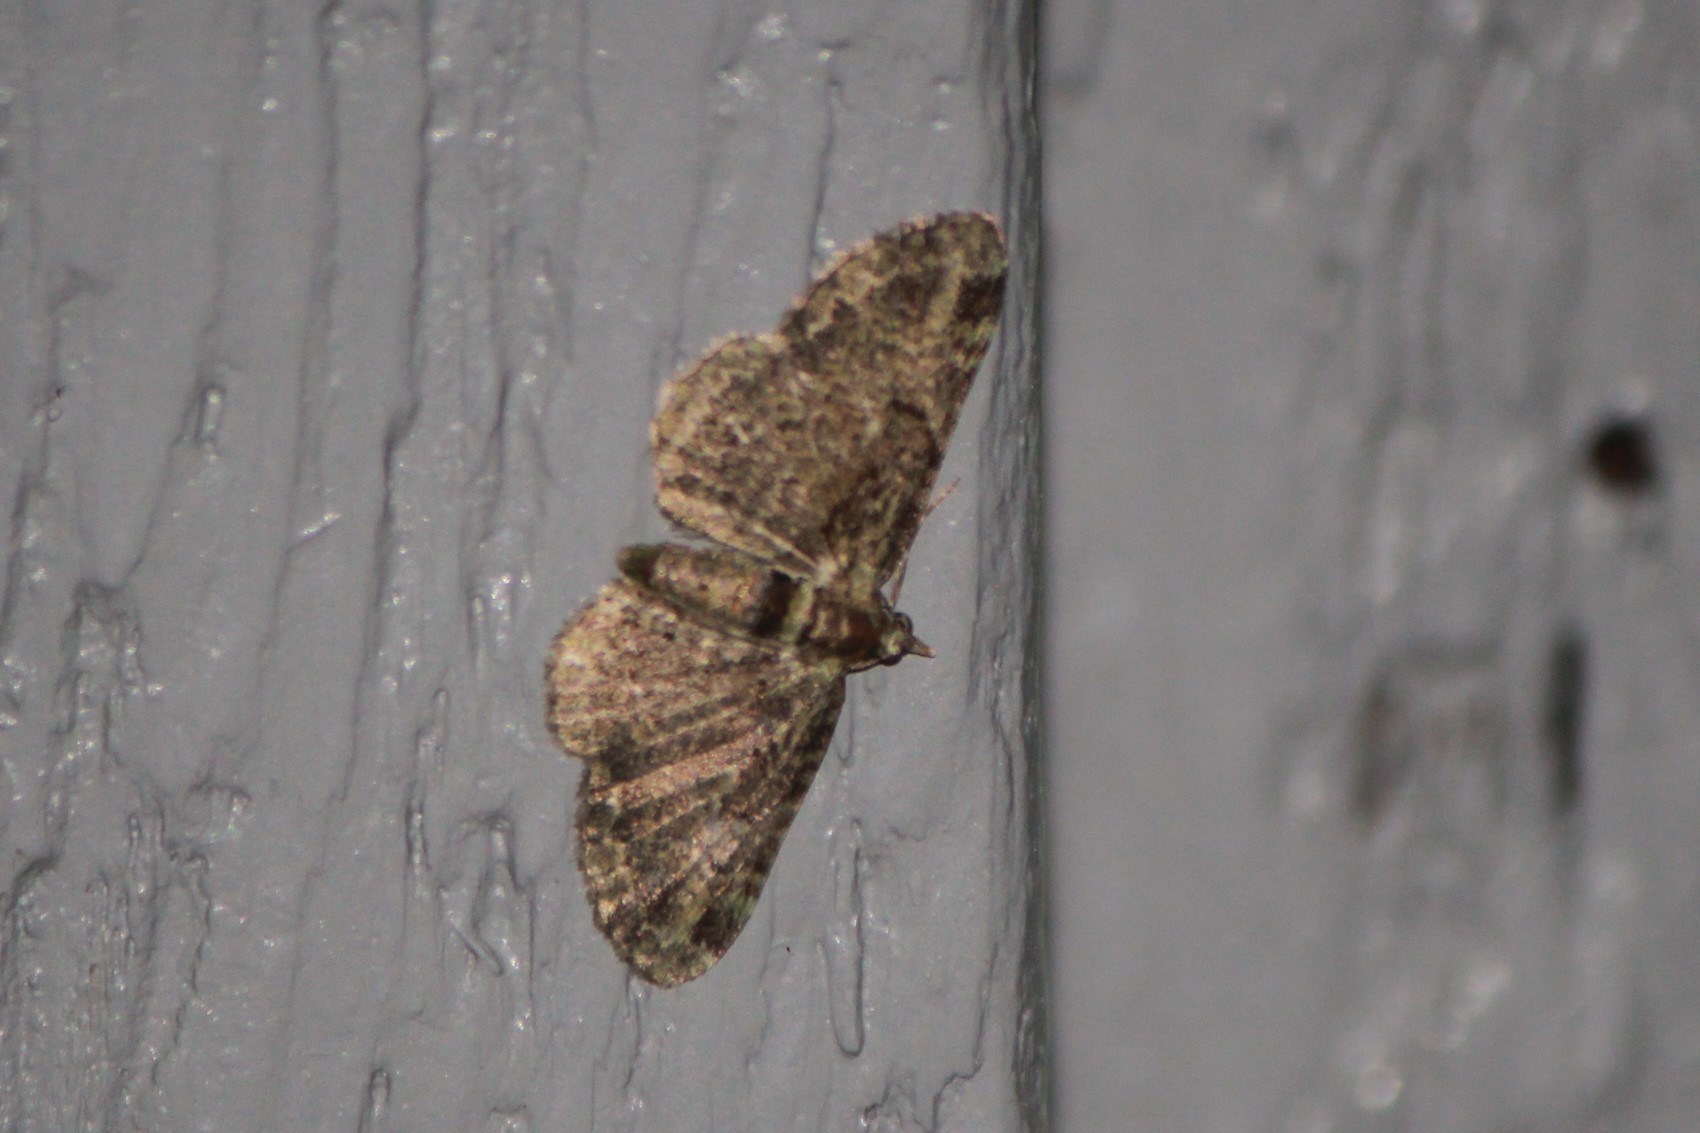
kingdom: Animalia
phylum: Arthropoda
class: Insecta
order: Lepidoptera
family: Geometridae
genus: Pasiphila
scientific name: Pasiphila rectangulata
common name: Green pug
